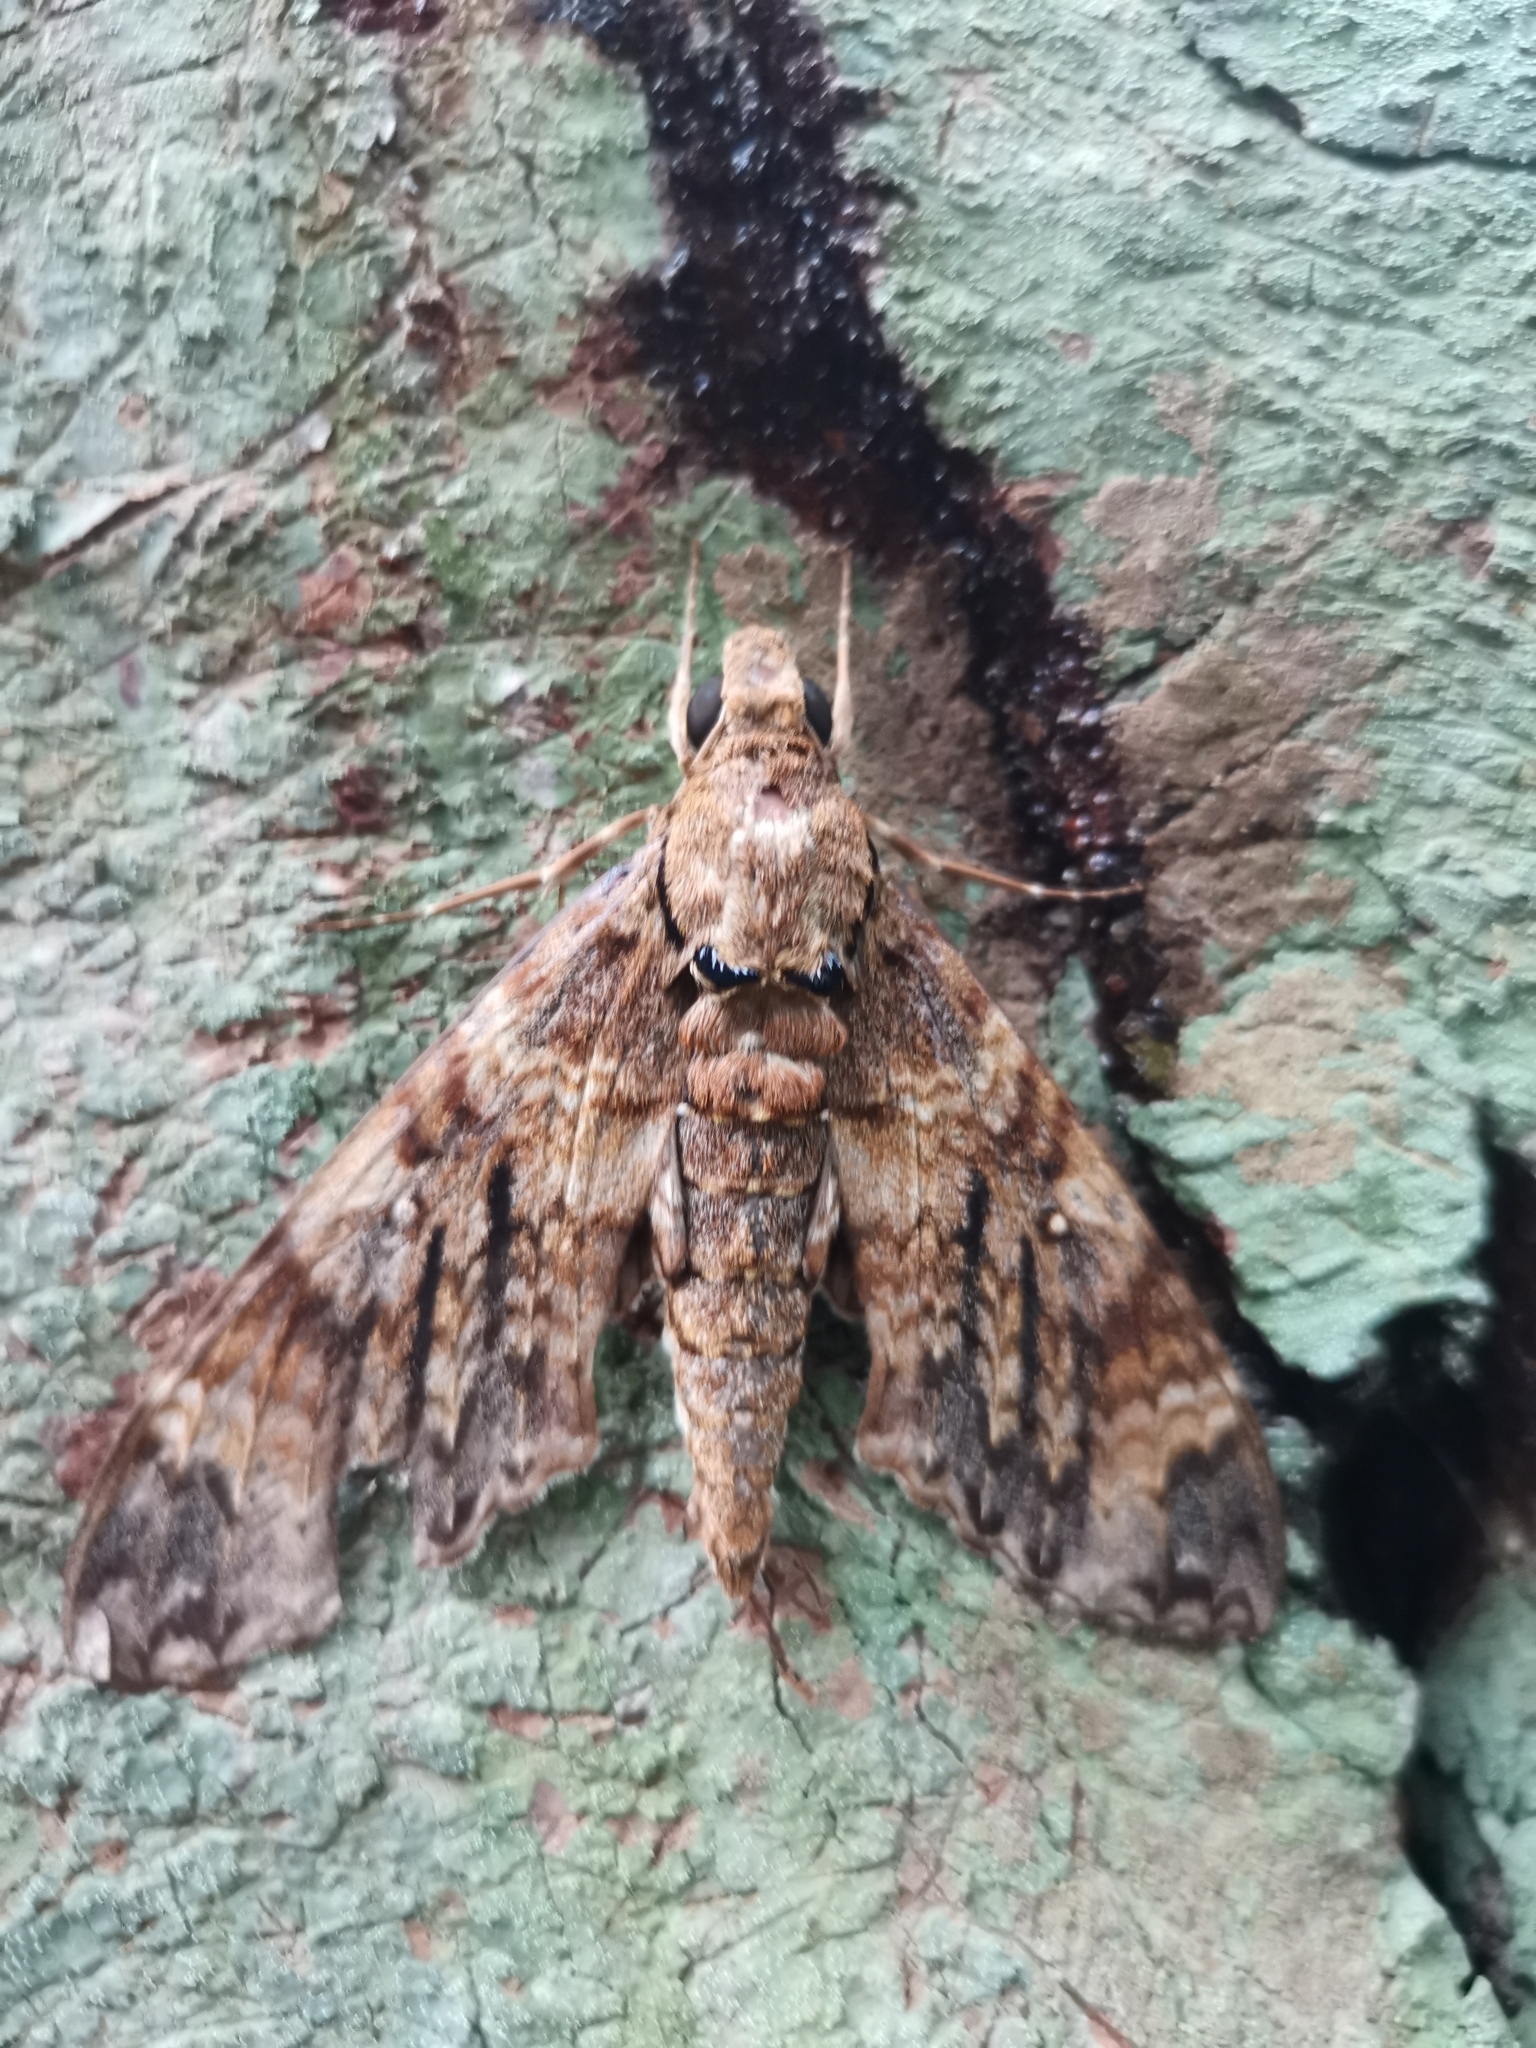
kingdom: Animalia
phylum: Arthropoda
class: Insecta
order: Lepidoptera
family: Sphingidae
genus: Meganoton
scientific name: Meganoton nyctiphanes
